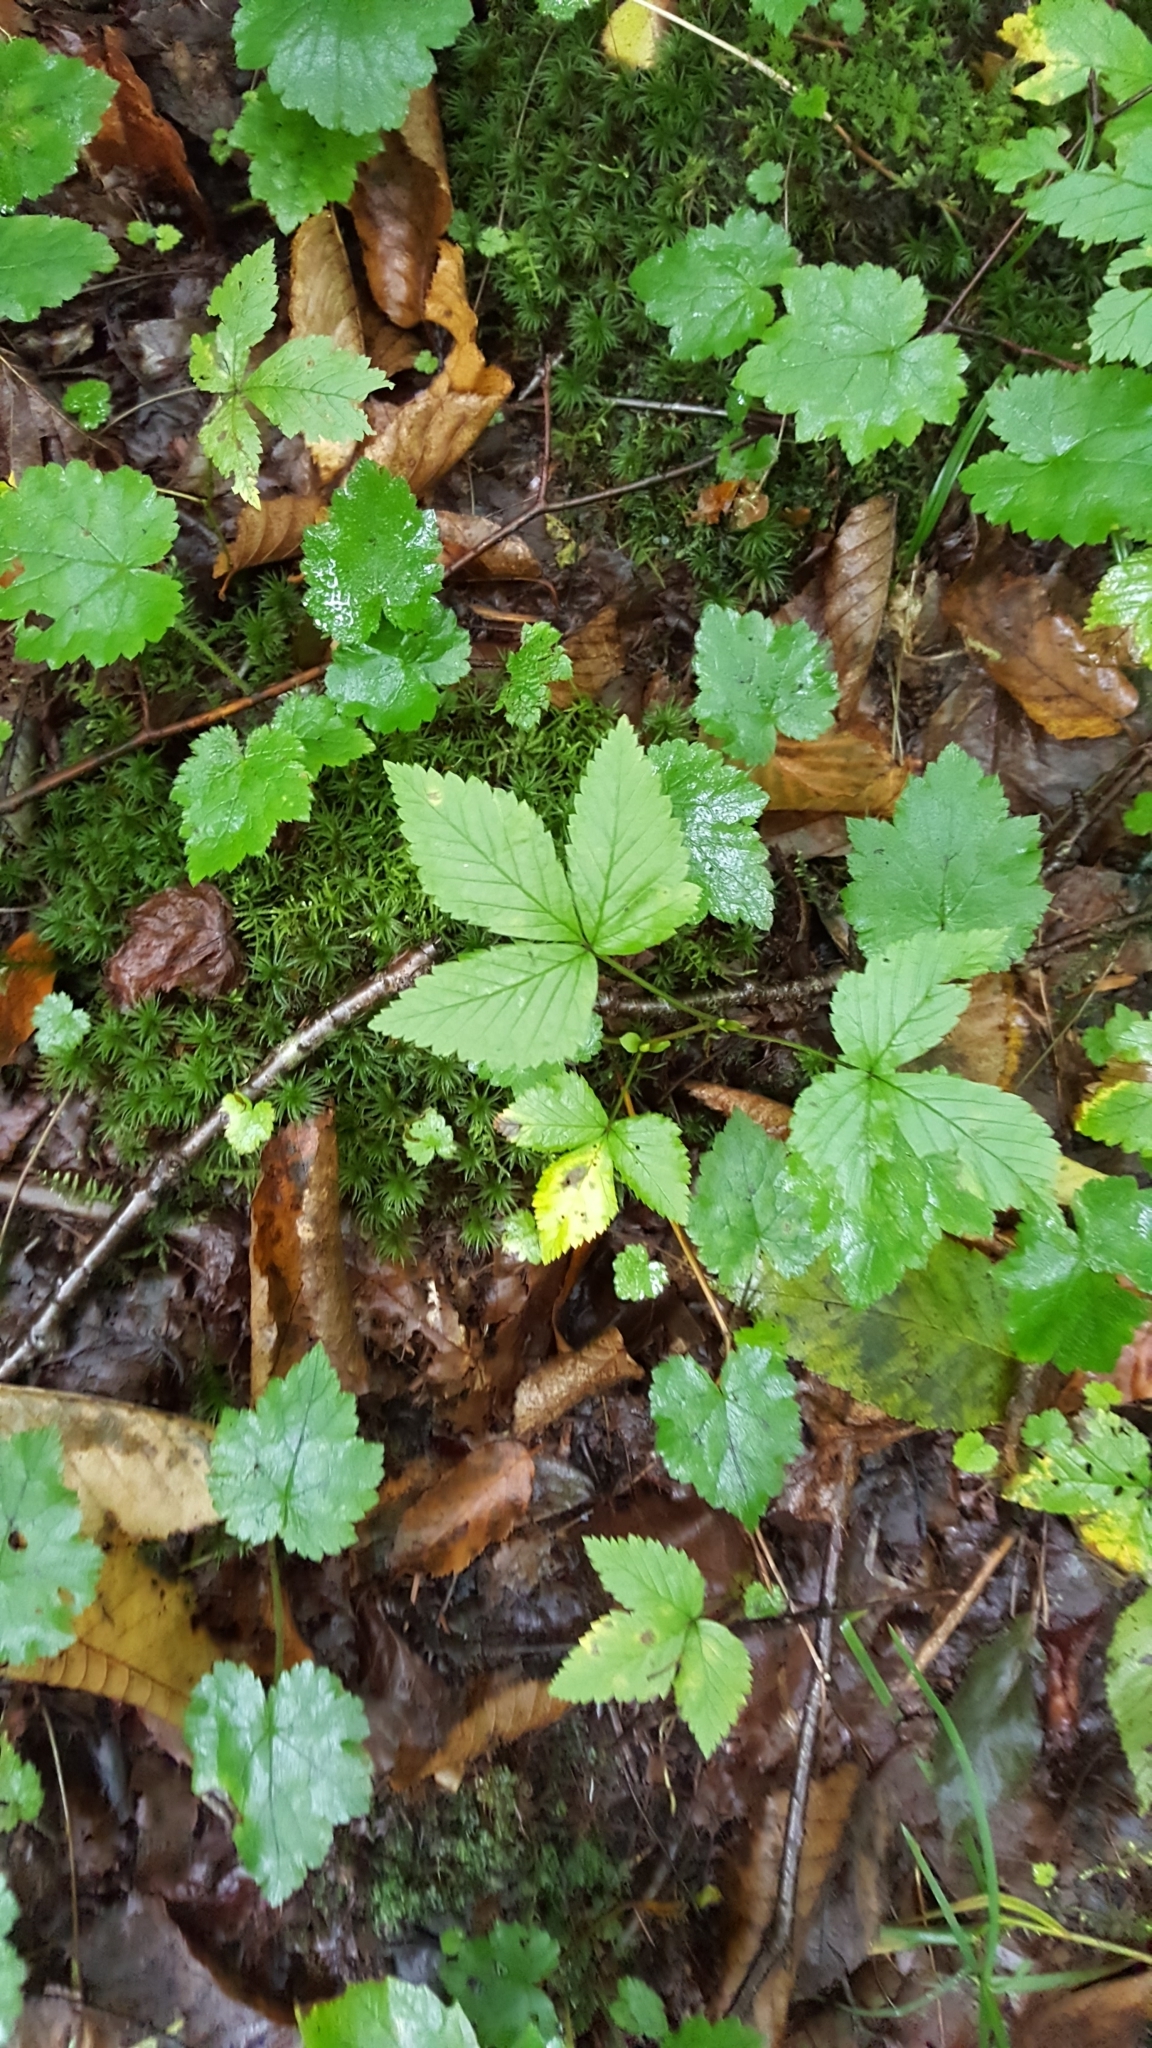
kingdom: Plantae
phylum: Tracheophyta
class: Magnoliopsida
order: Rosales
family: Rosaceae
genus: Rubus
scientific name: Rubus pubescens
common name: Dwarf raspberry
